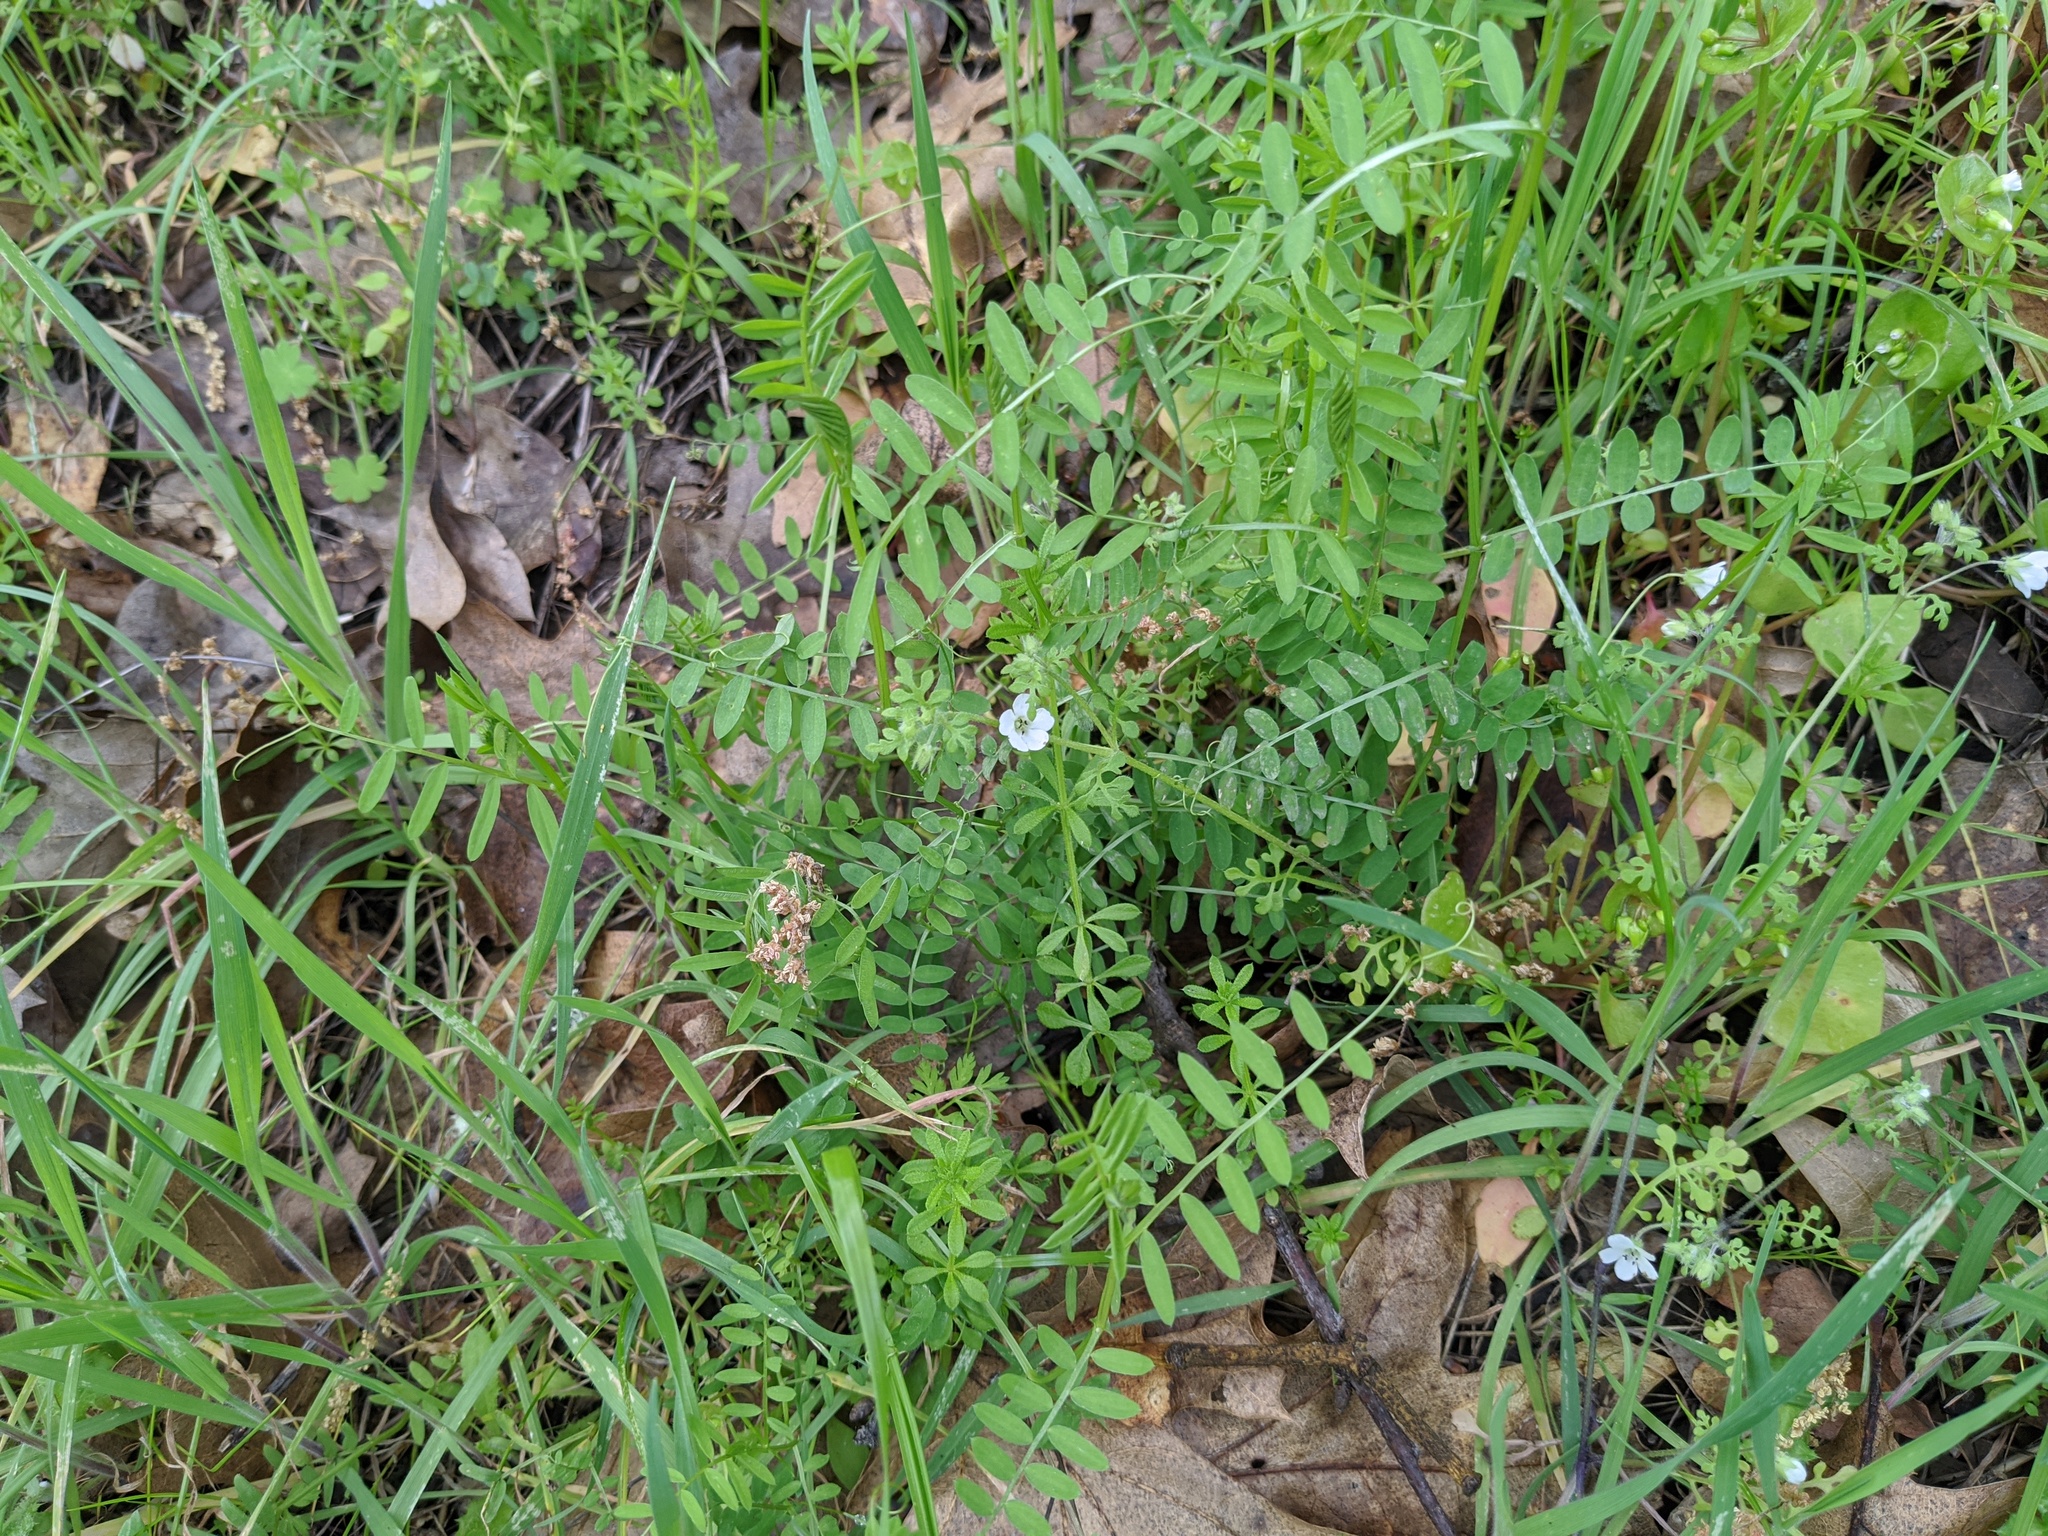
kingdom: Plantae
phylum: Tracheophyta
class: Magnoliopsida
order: Boraginales
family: Hydrophyllaceae
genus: Nemophila
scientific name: Nemophila heterophylla
